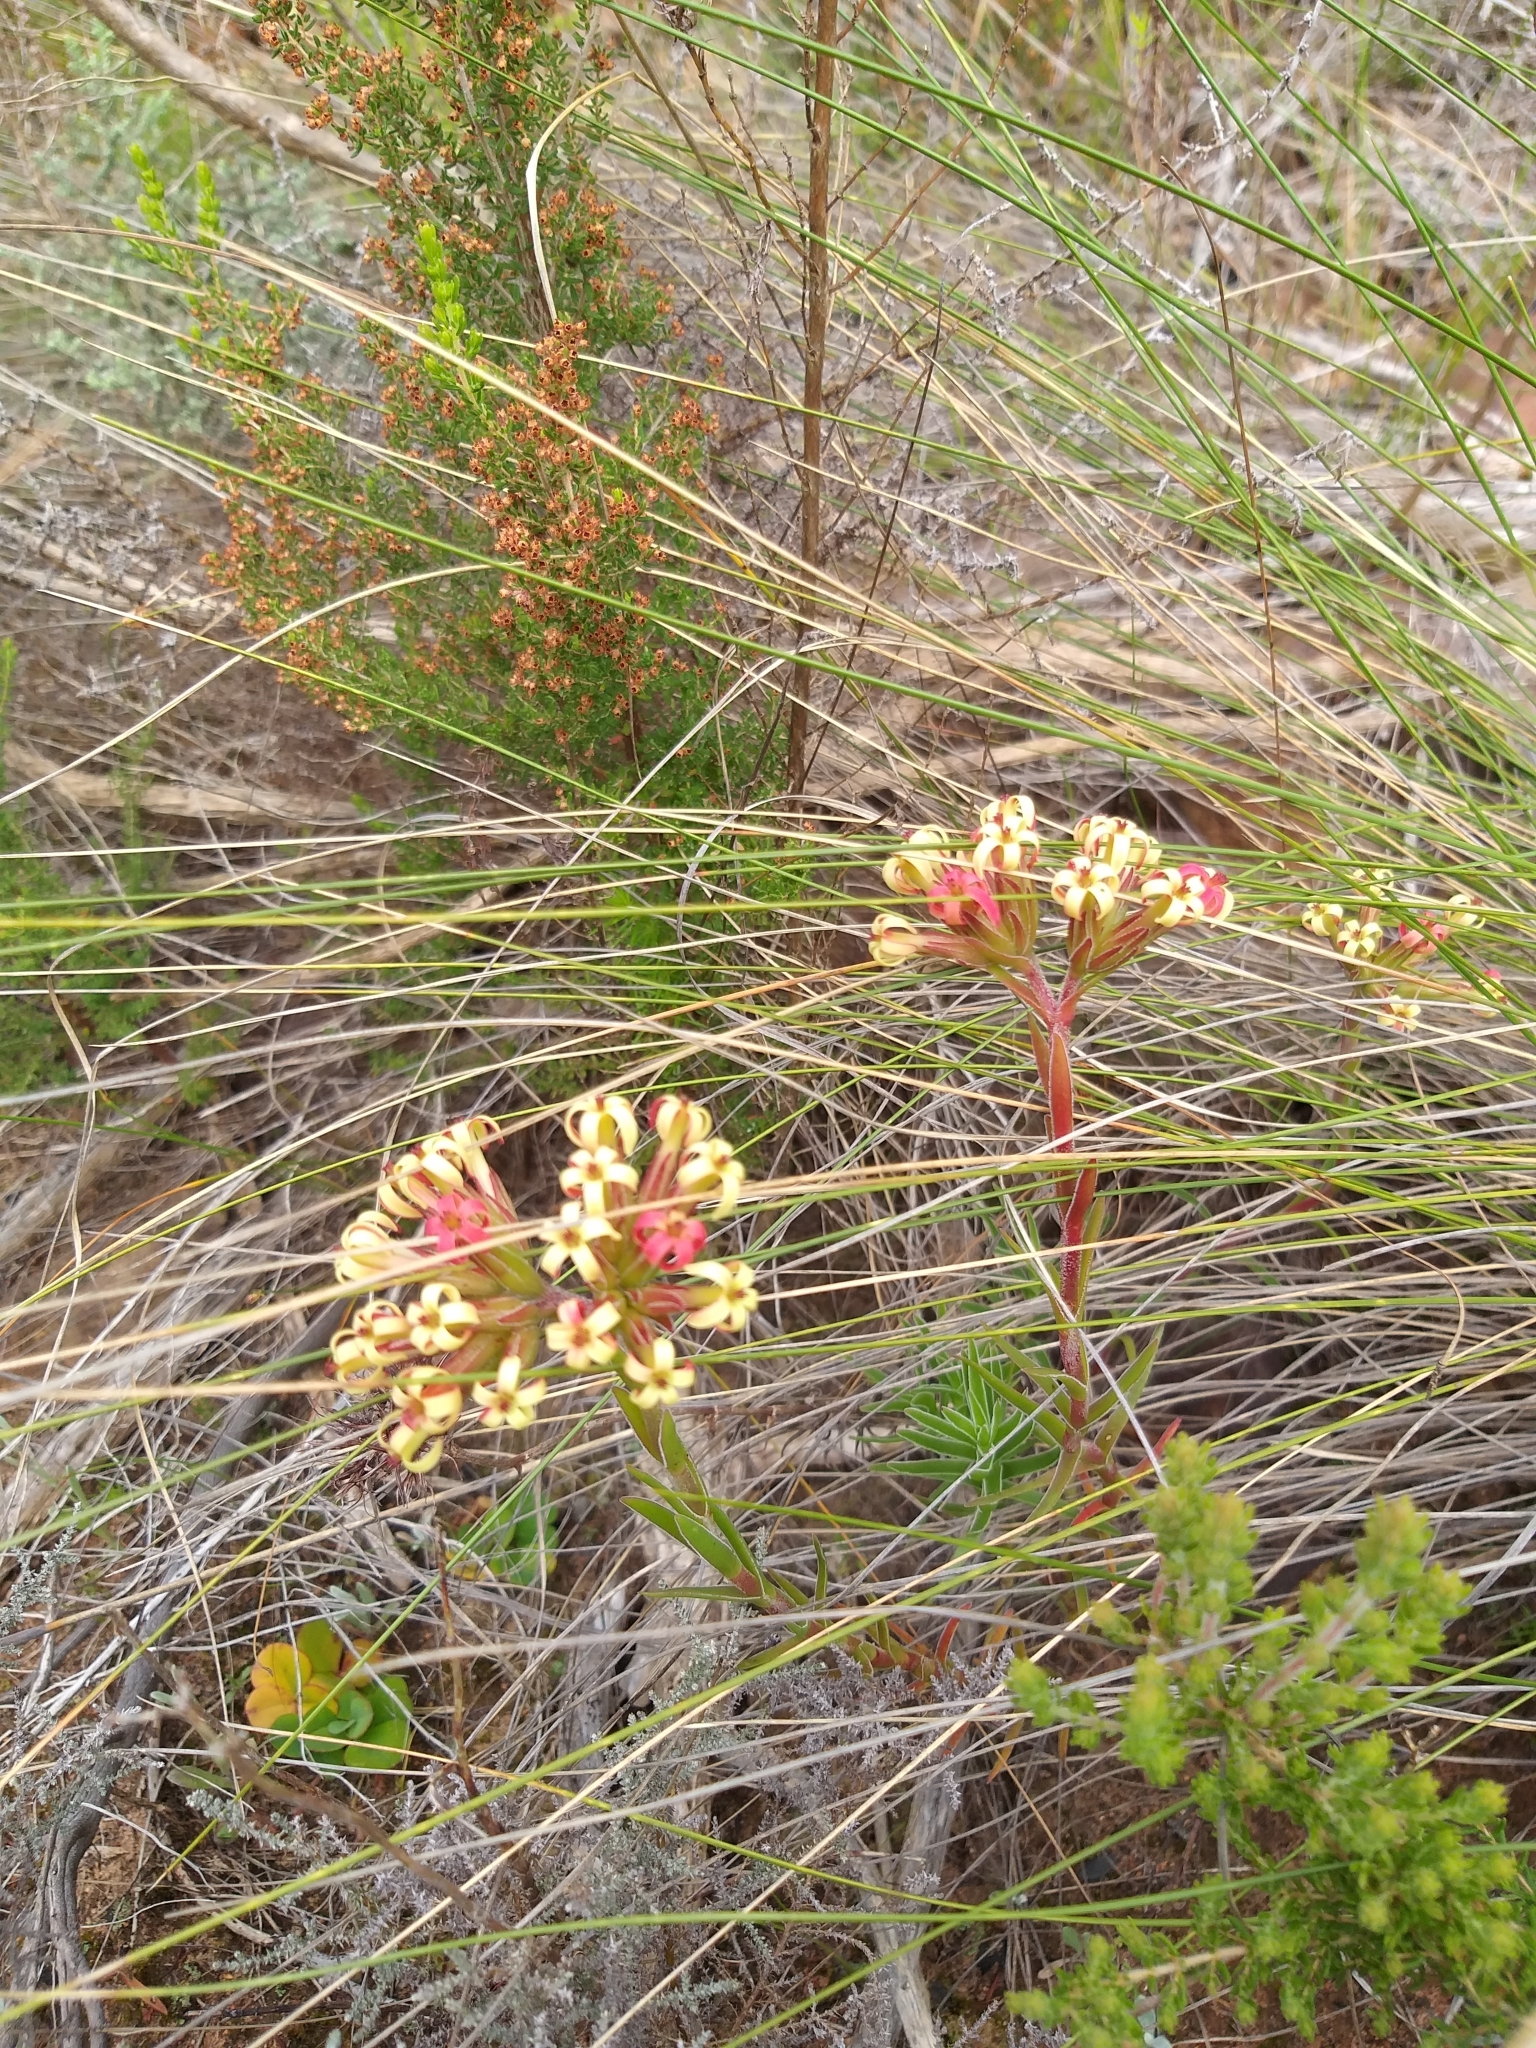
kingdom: Plantae
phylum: Tracheophyta
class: Magnoliopsida
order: Saxifragales
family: Crassulaceae
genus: Crassula
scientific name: Crassula fascicularis
